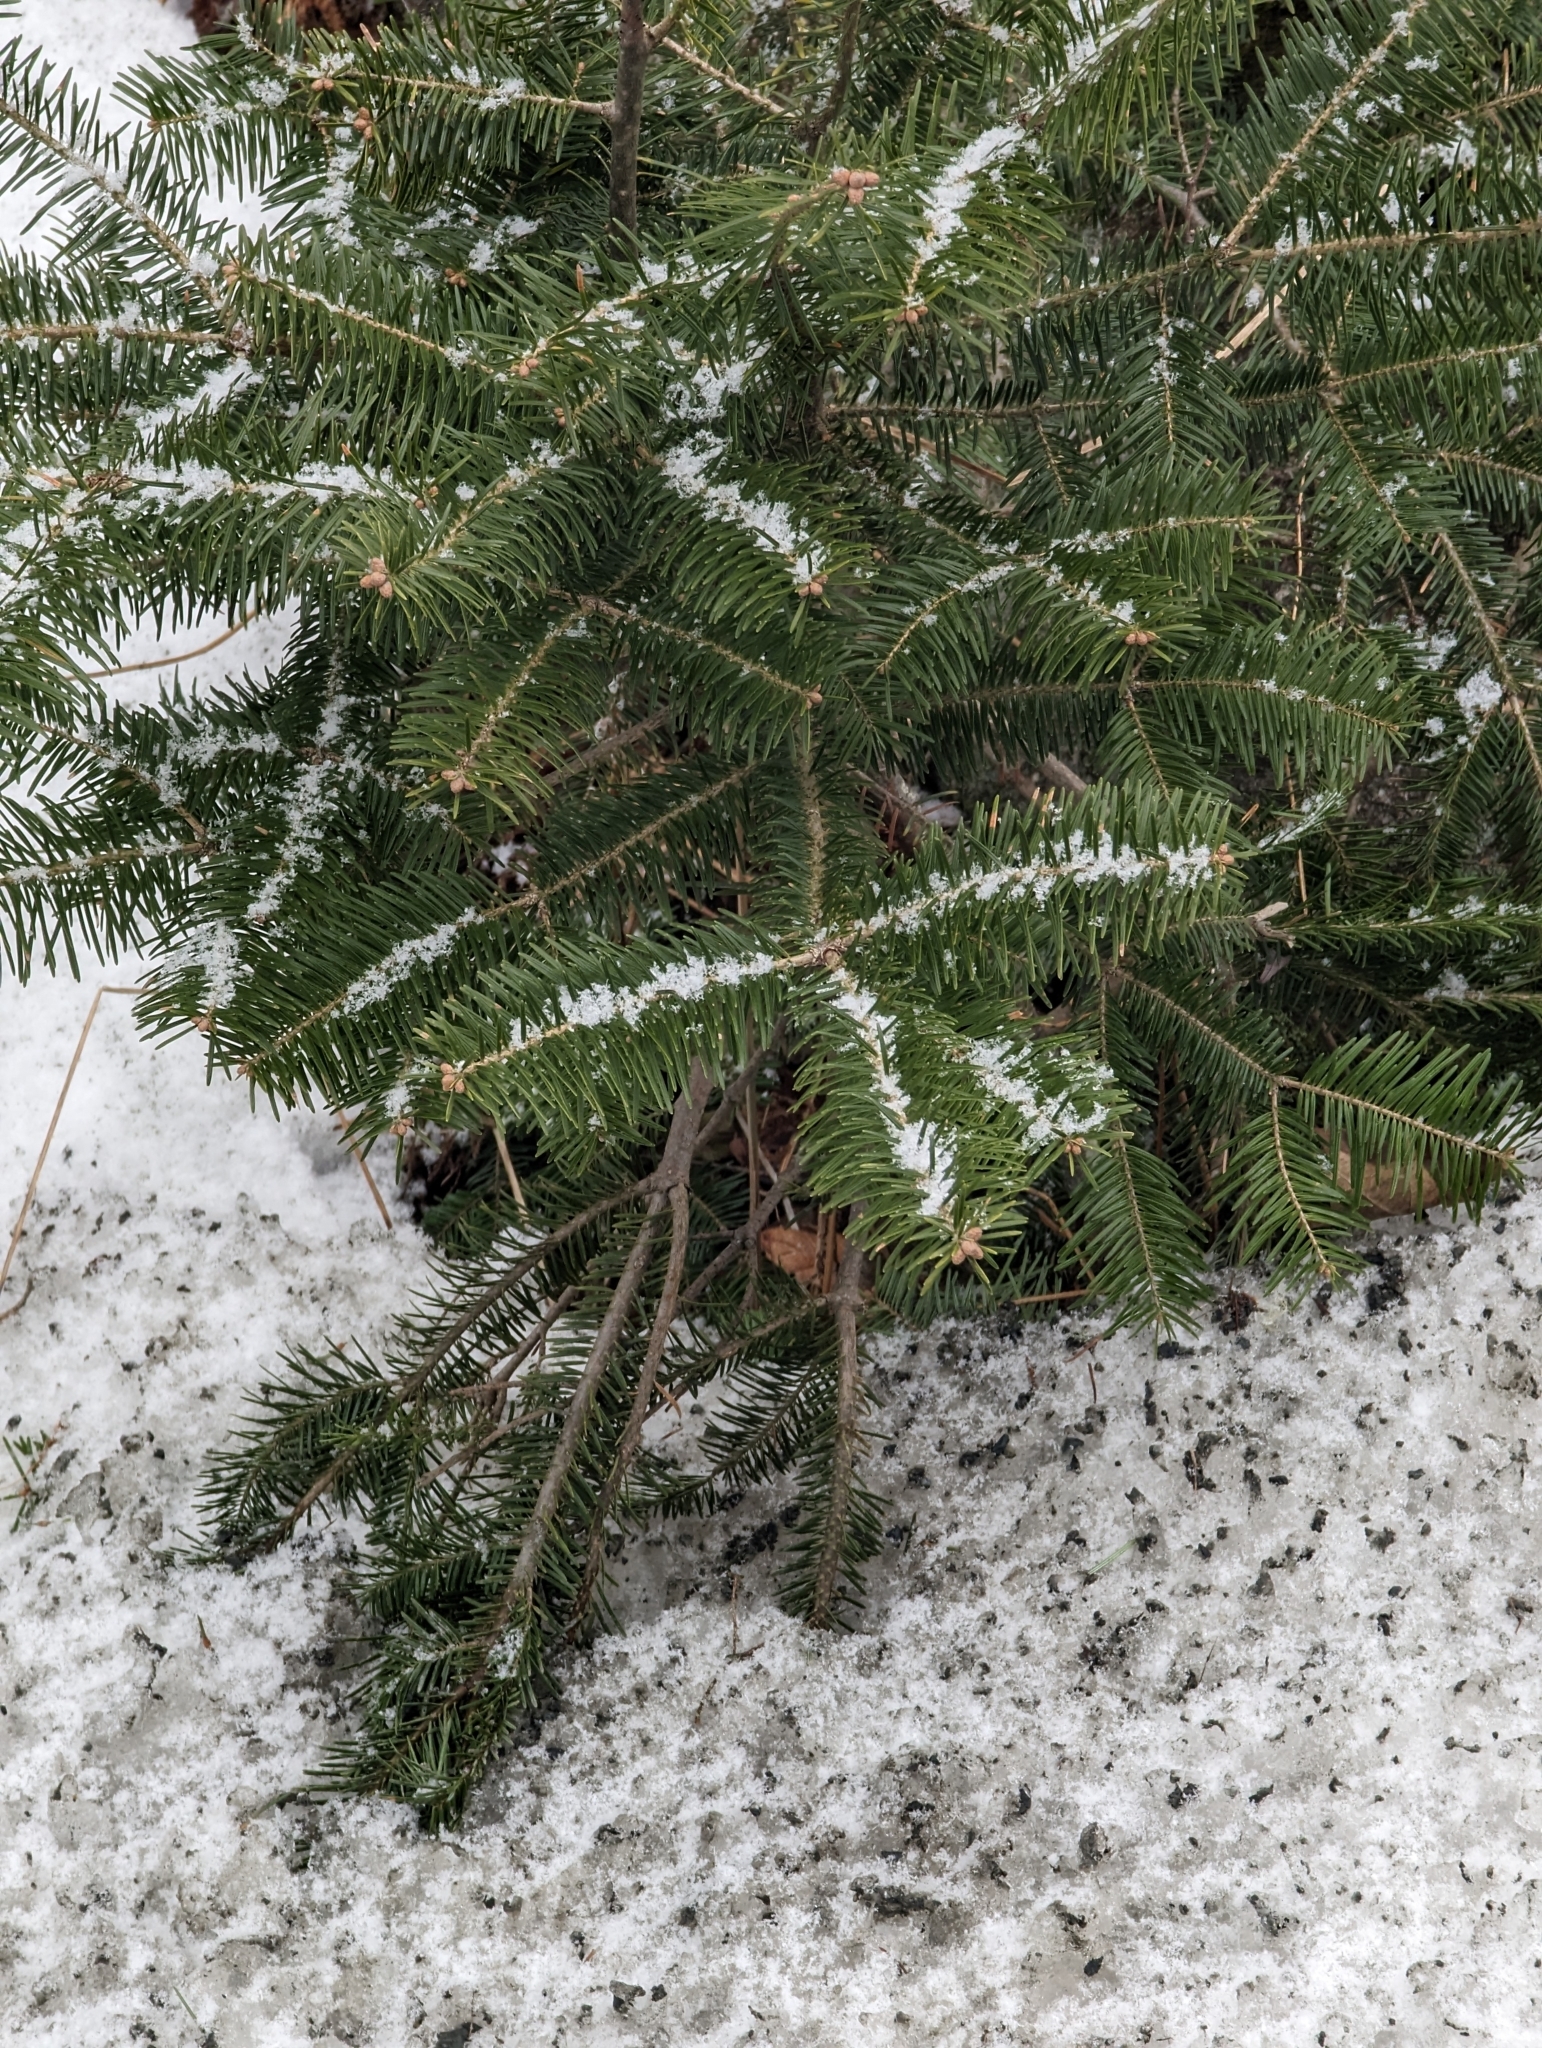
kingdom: Plantae
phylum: Tracheophyta
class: Pinopsida
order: Pinales
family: Pinaceae
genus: Abies
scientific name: Abies balsamea
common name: Balsam fir
